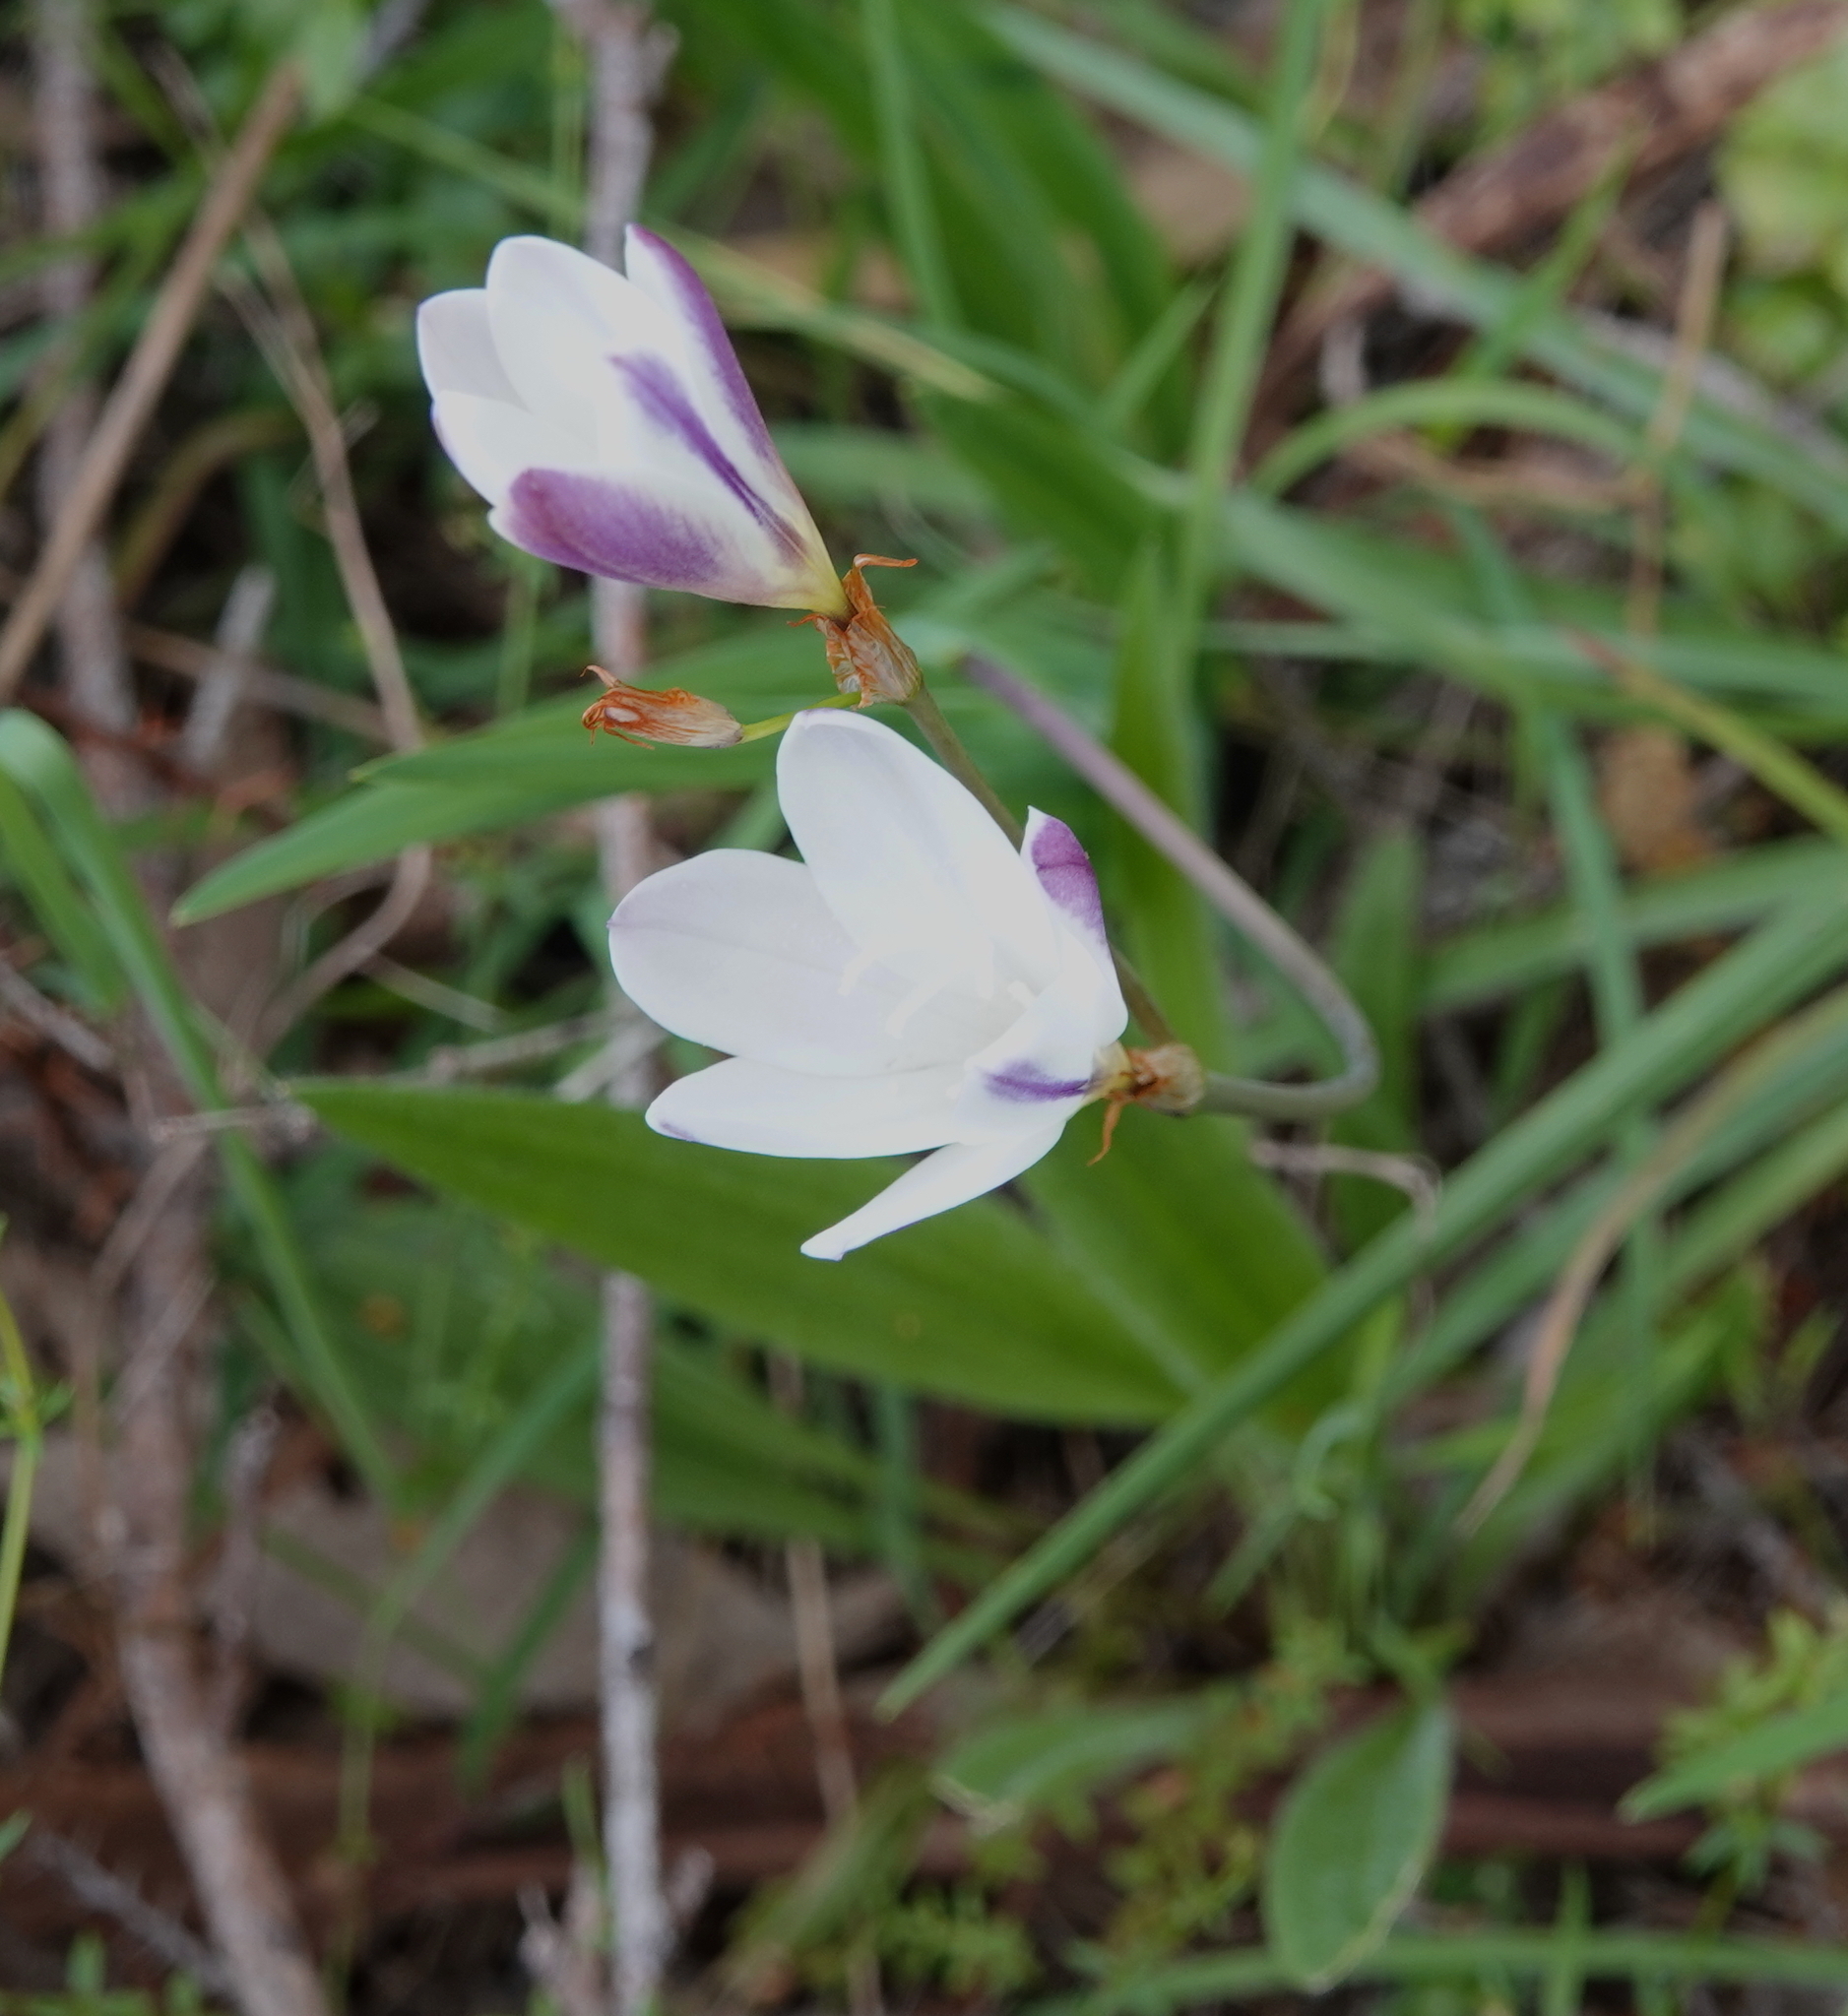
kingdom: Plantae
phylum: Tracheophyta
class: Liliopsida
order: Asparagales
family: Iridaceae
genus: Sparaxis
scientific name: Sparaxis bulbifera
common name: Harlequin-flower
